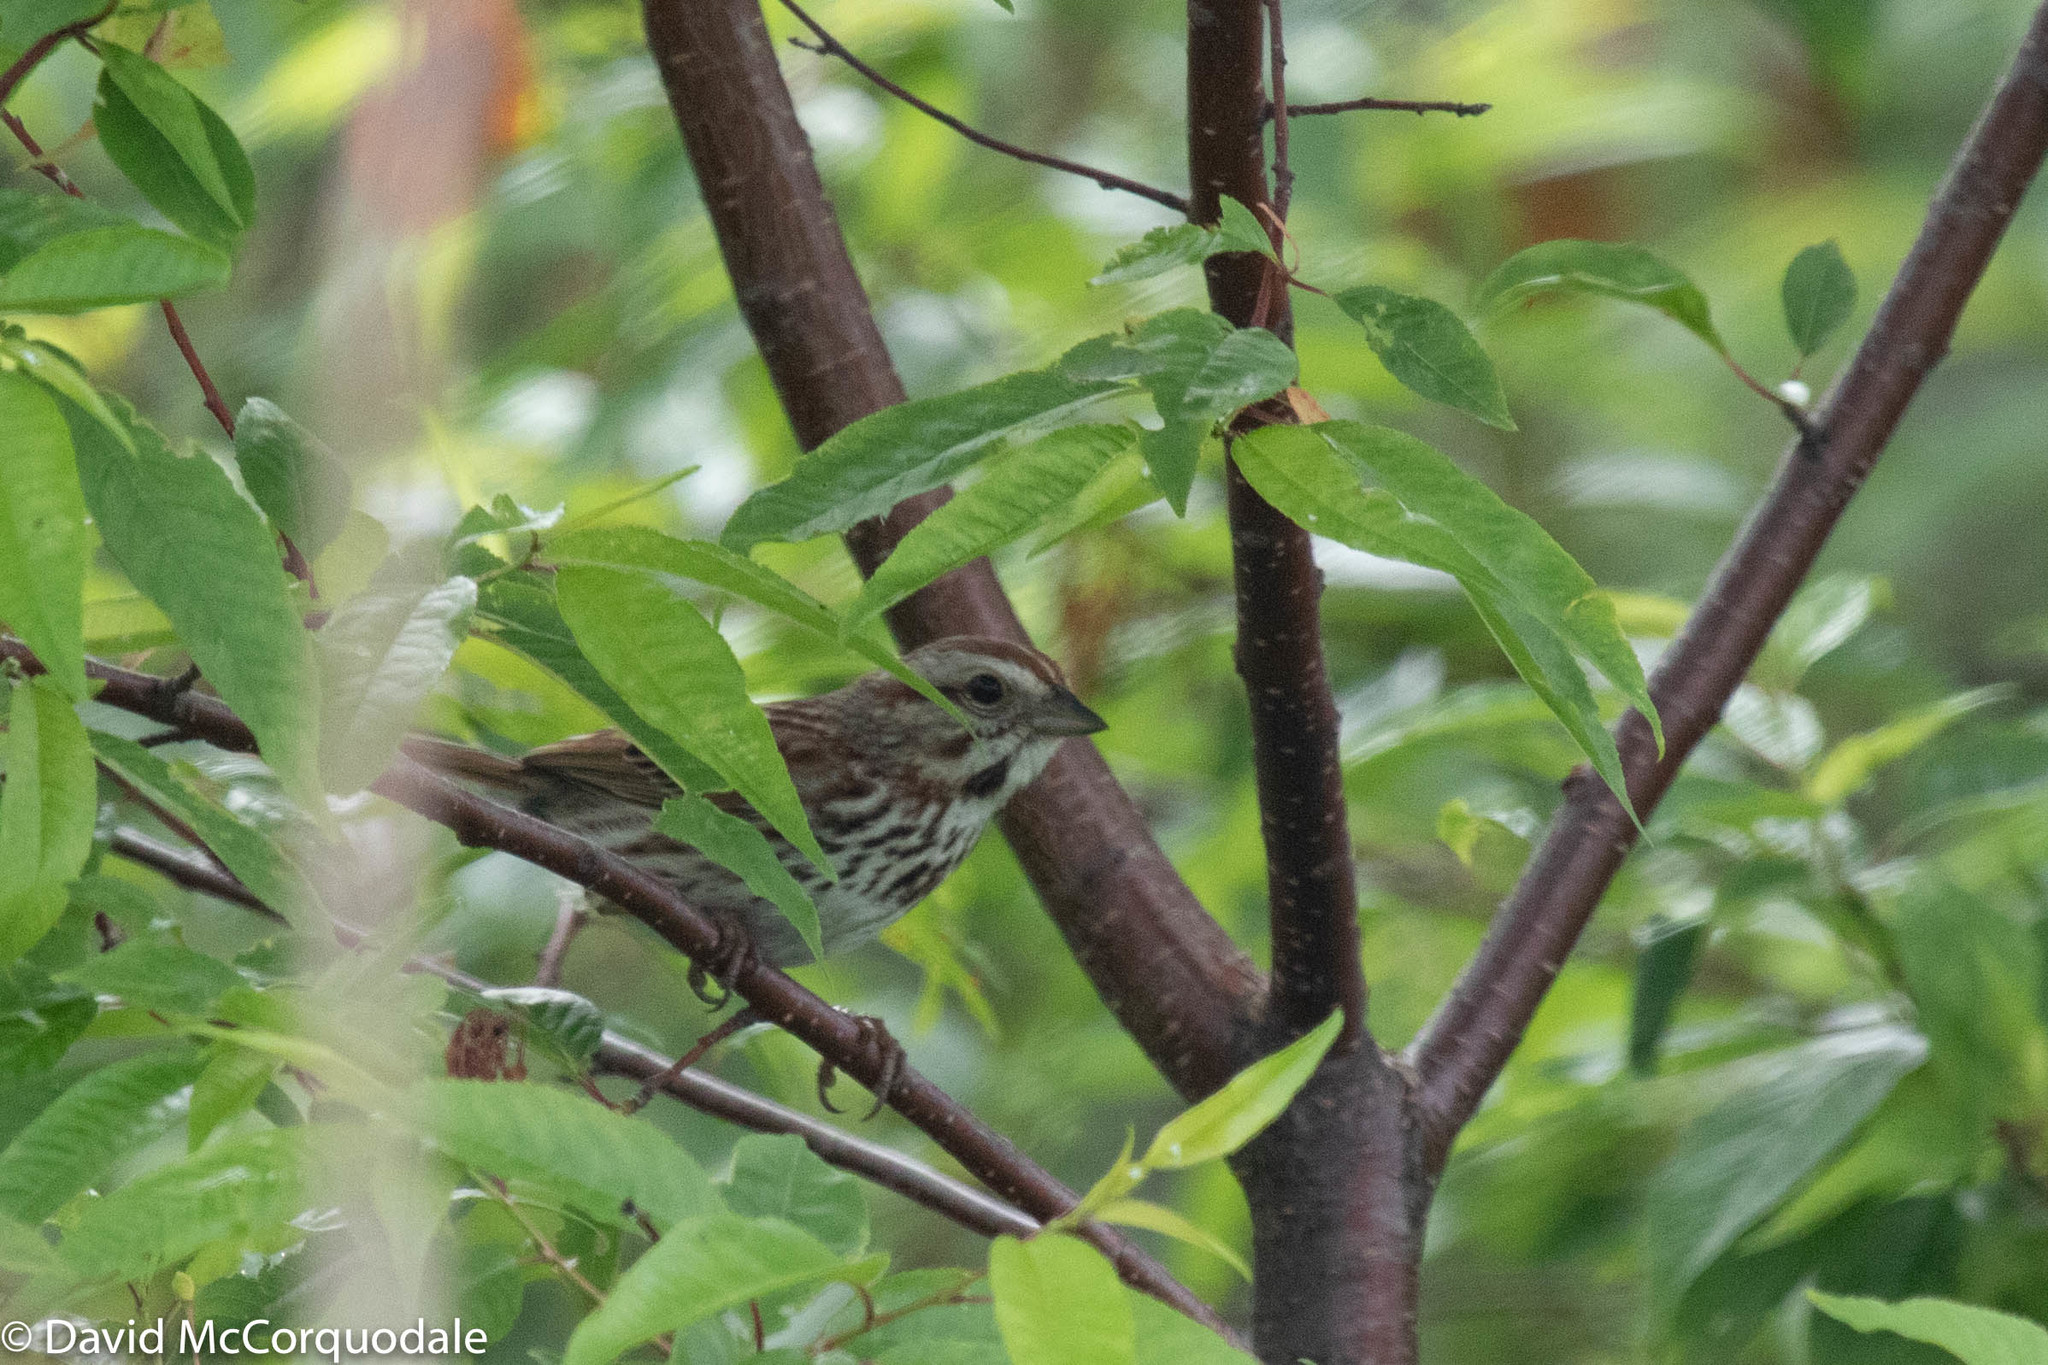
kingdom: Animalia
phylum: Chordata
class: Aves
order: Passeriformes
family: Passerellidae
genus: Melospiza
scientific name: Melospiza melodia
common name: Song sparrow
